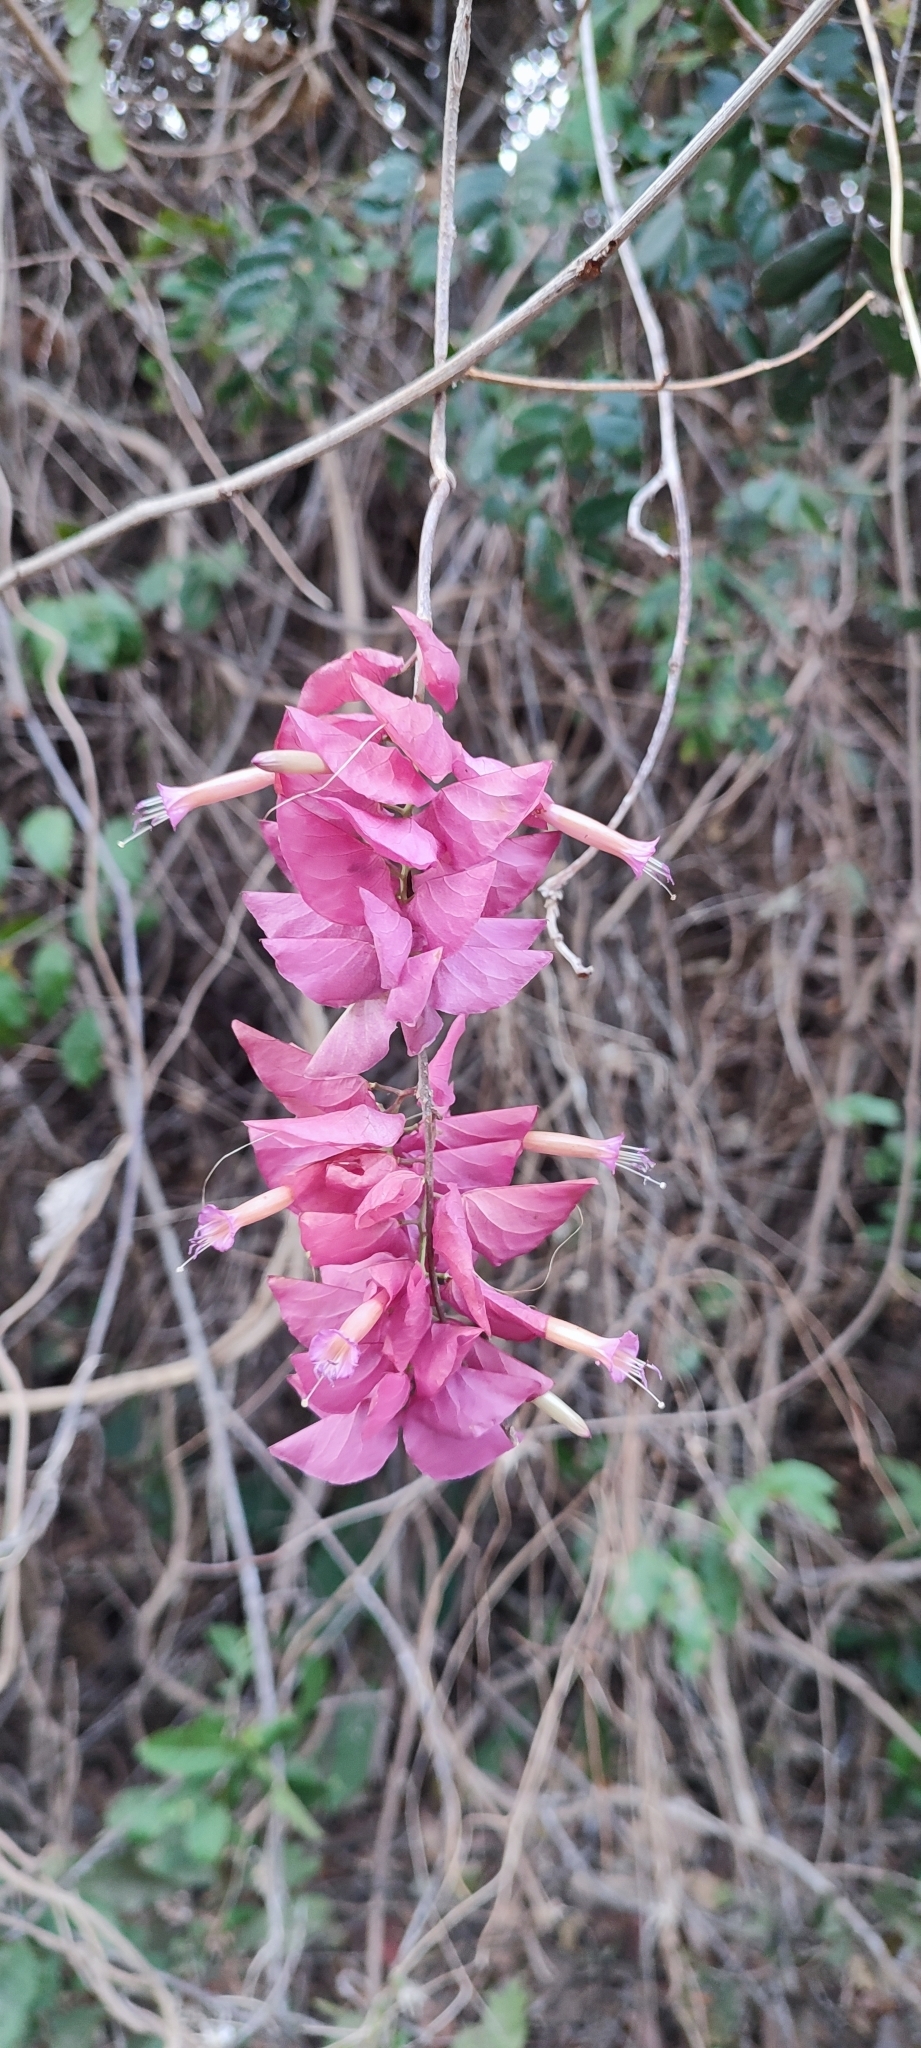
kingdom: Plantae
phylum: Tracheophyta
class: Magnoliopsida
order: Solanales
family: Convolvulaceae
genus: Ipomoea
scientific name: Ipomoea bracteata
